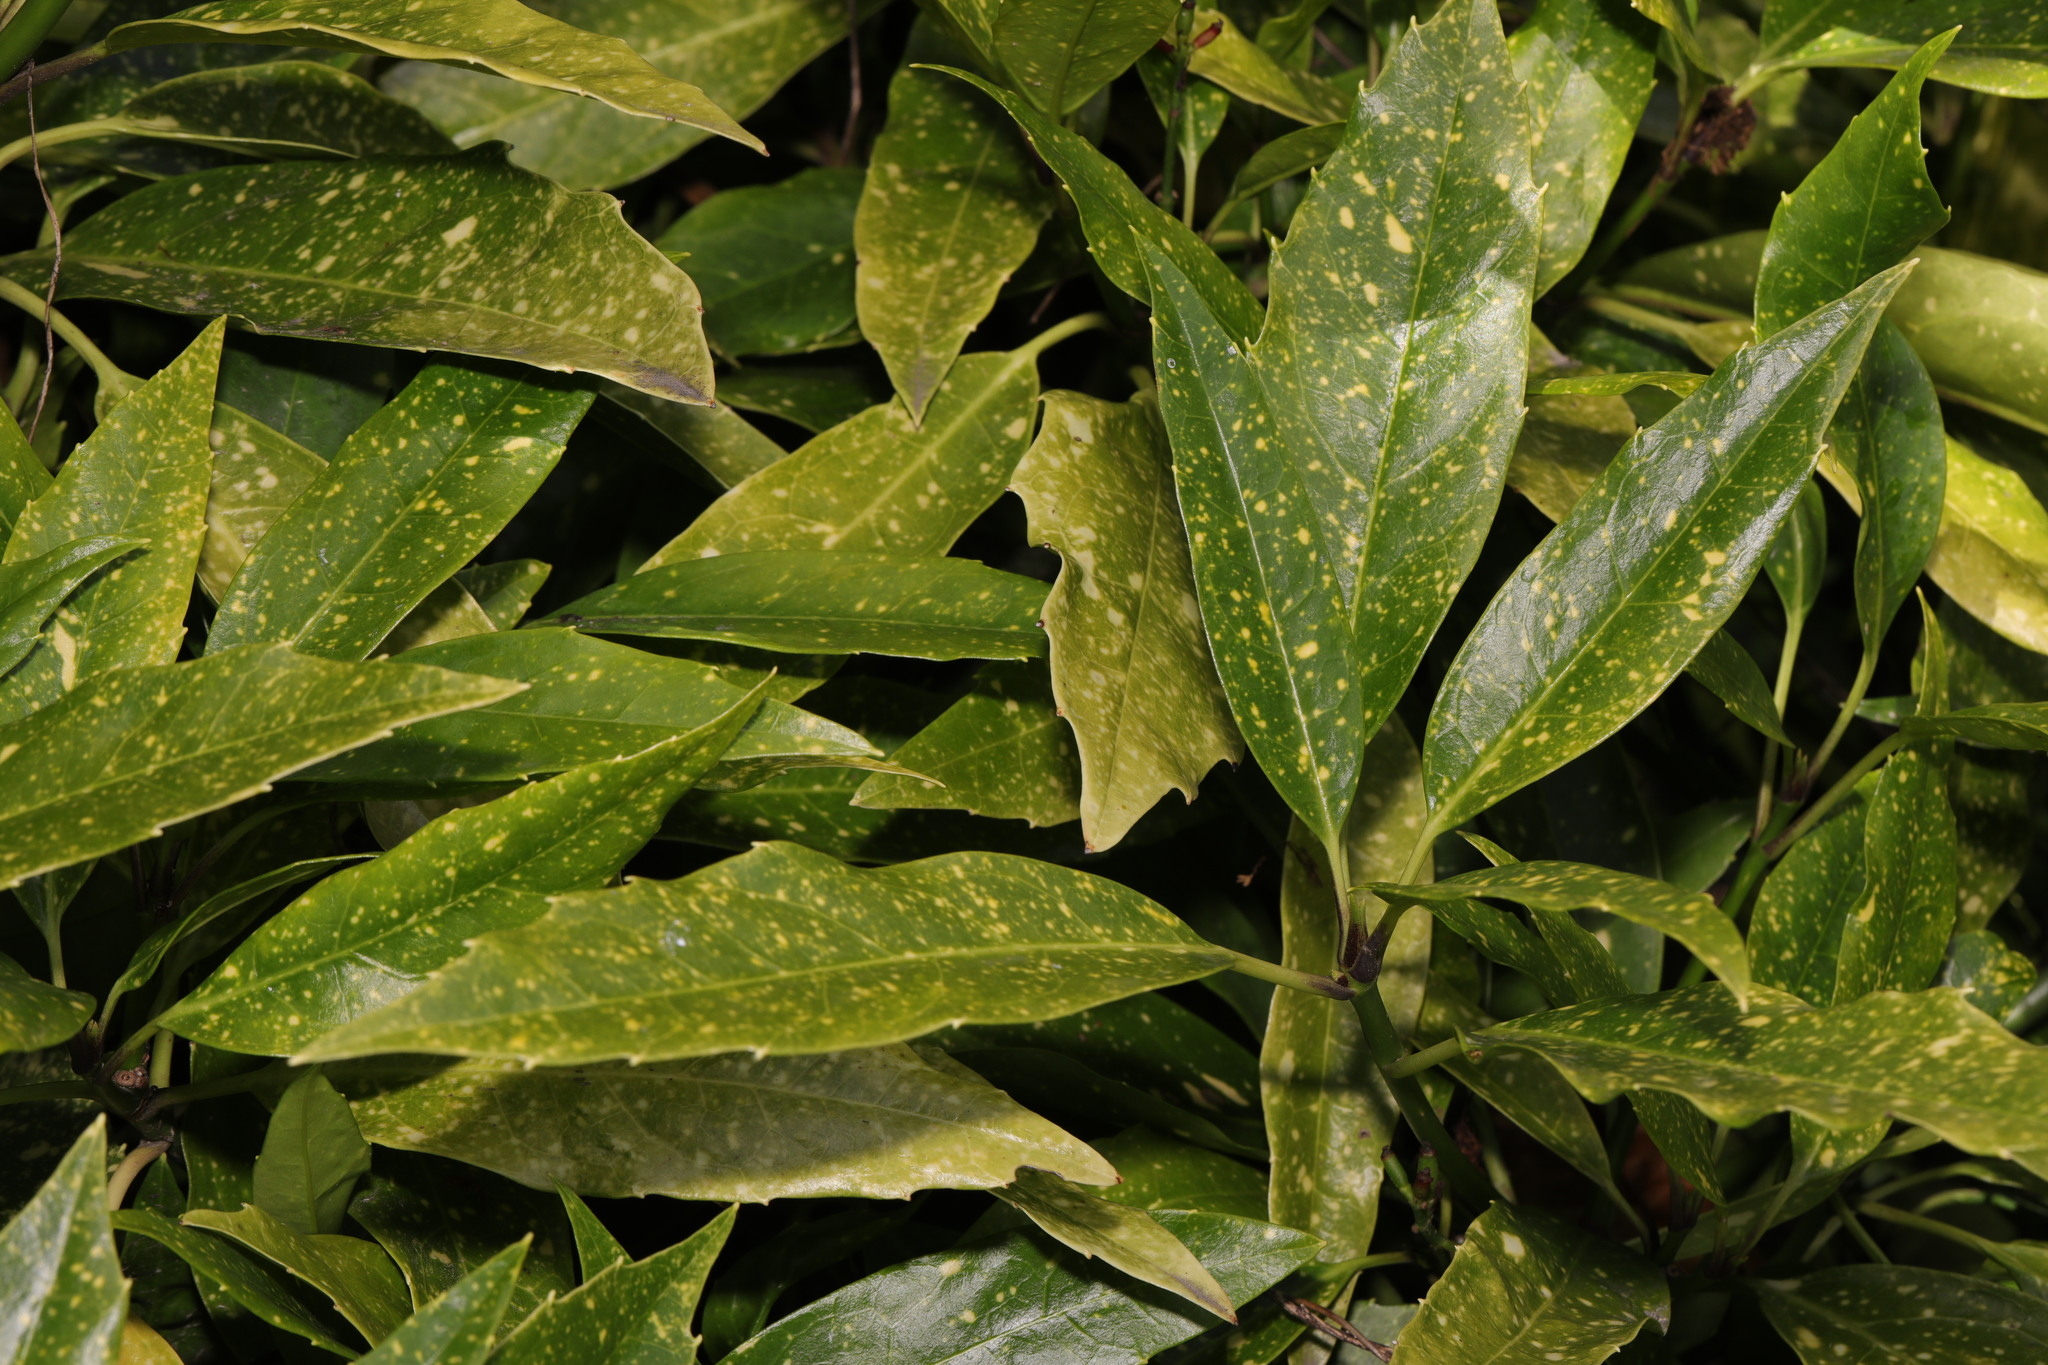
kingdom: Plantae
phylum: Tracheophyta
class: Magnoliopsida
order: Garryales
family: Garryaceae
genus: Aucuba
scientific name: Aucuba japonica
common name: Spotted-laurel
